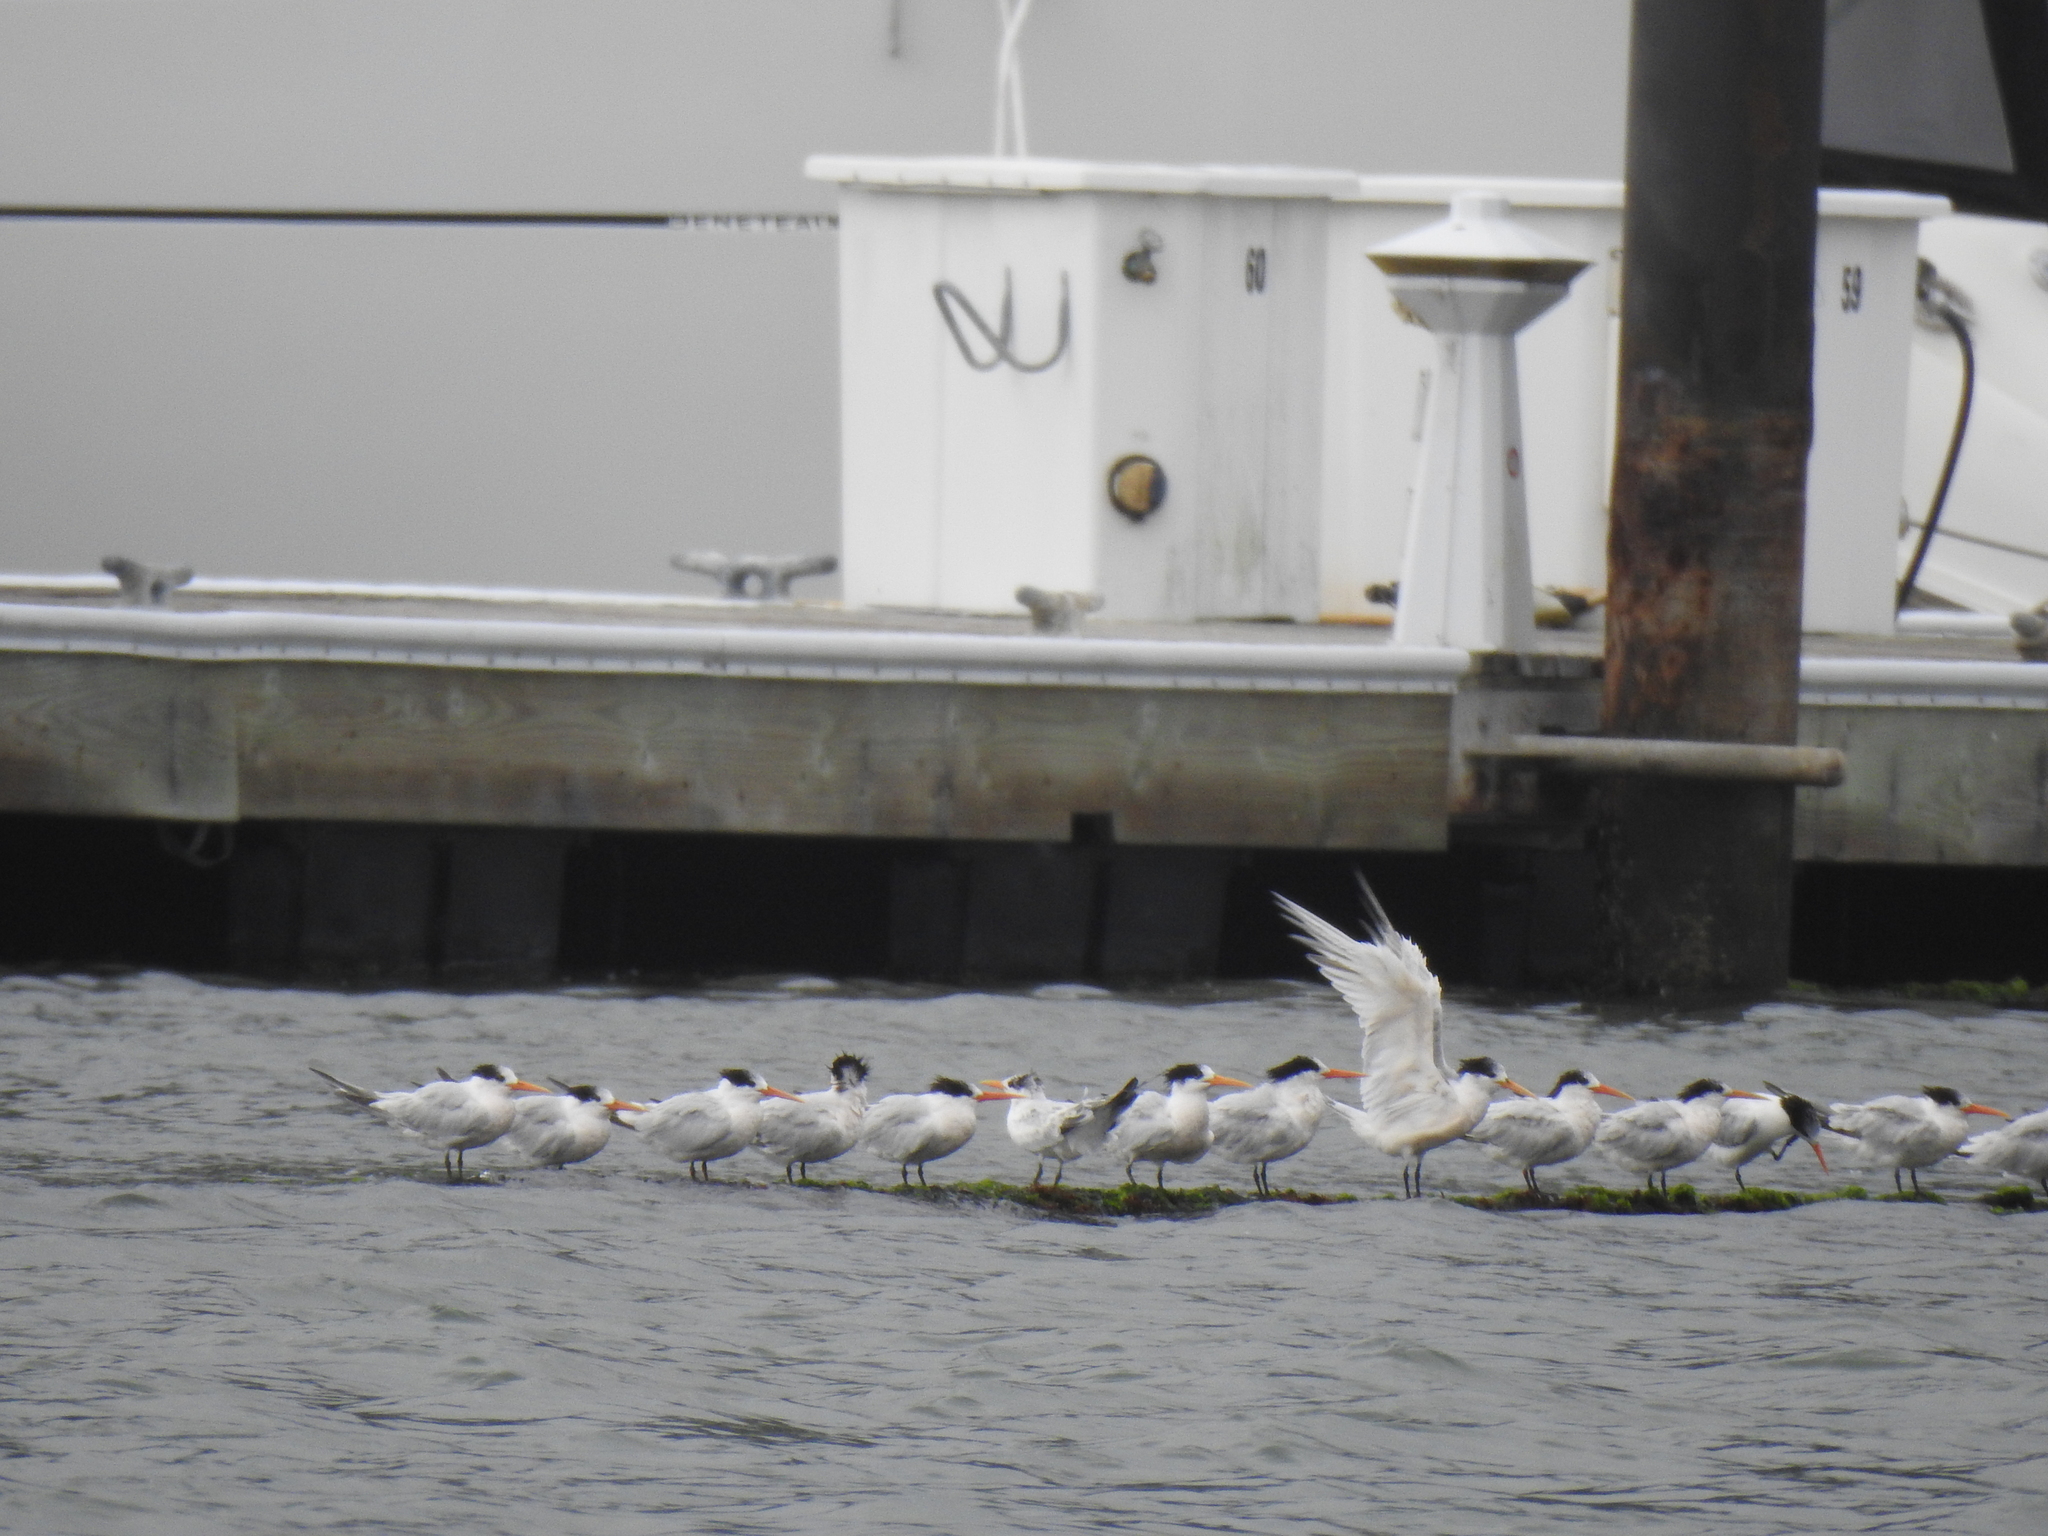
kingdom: Animalia
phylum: Chordata
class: Aves
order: Charadriiformes
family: Laridae
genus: Thalasseus
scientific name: Thalasseus elegans
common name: Elegant tern
